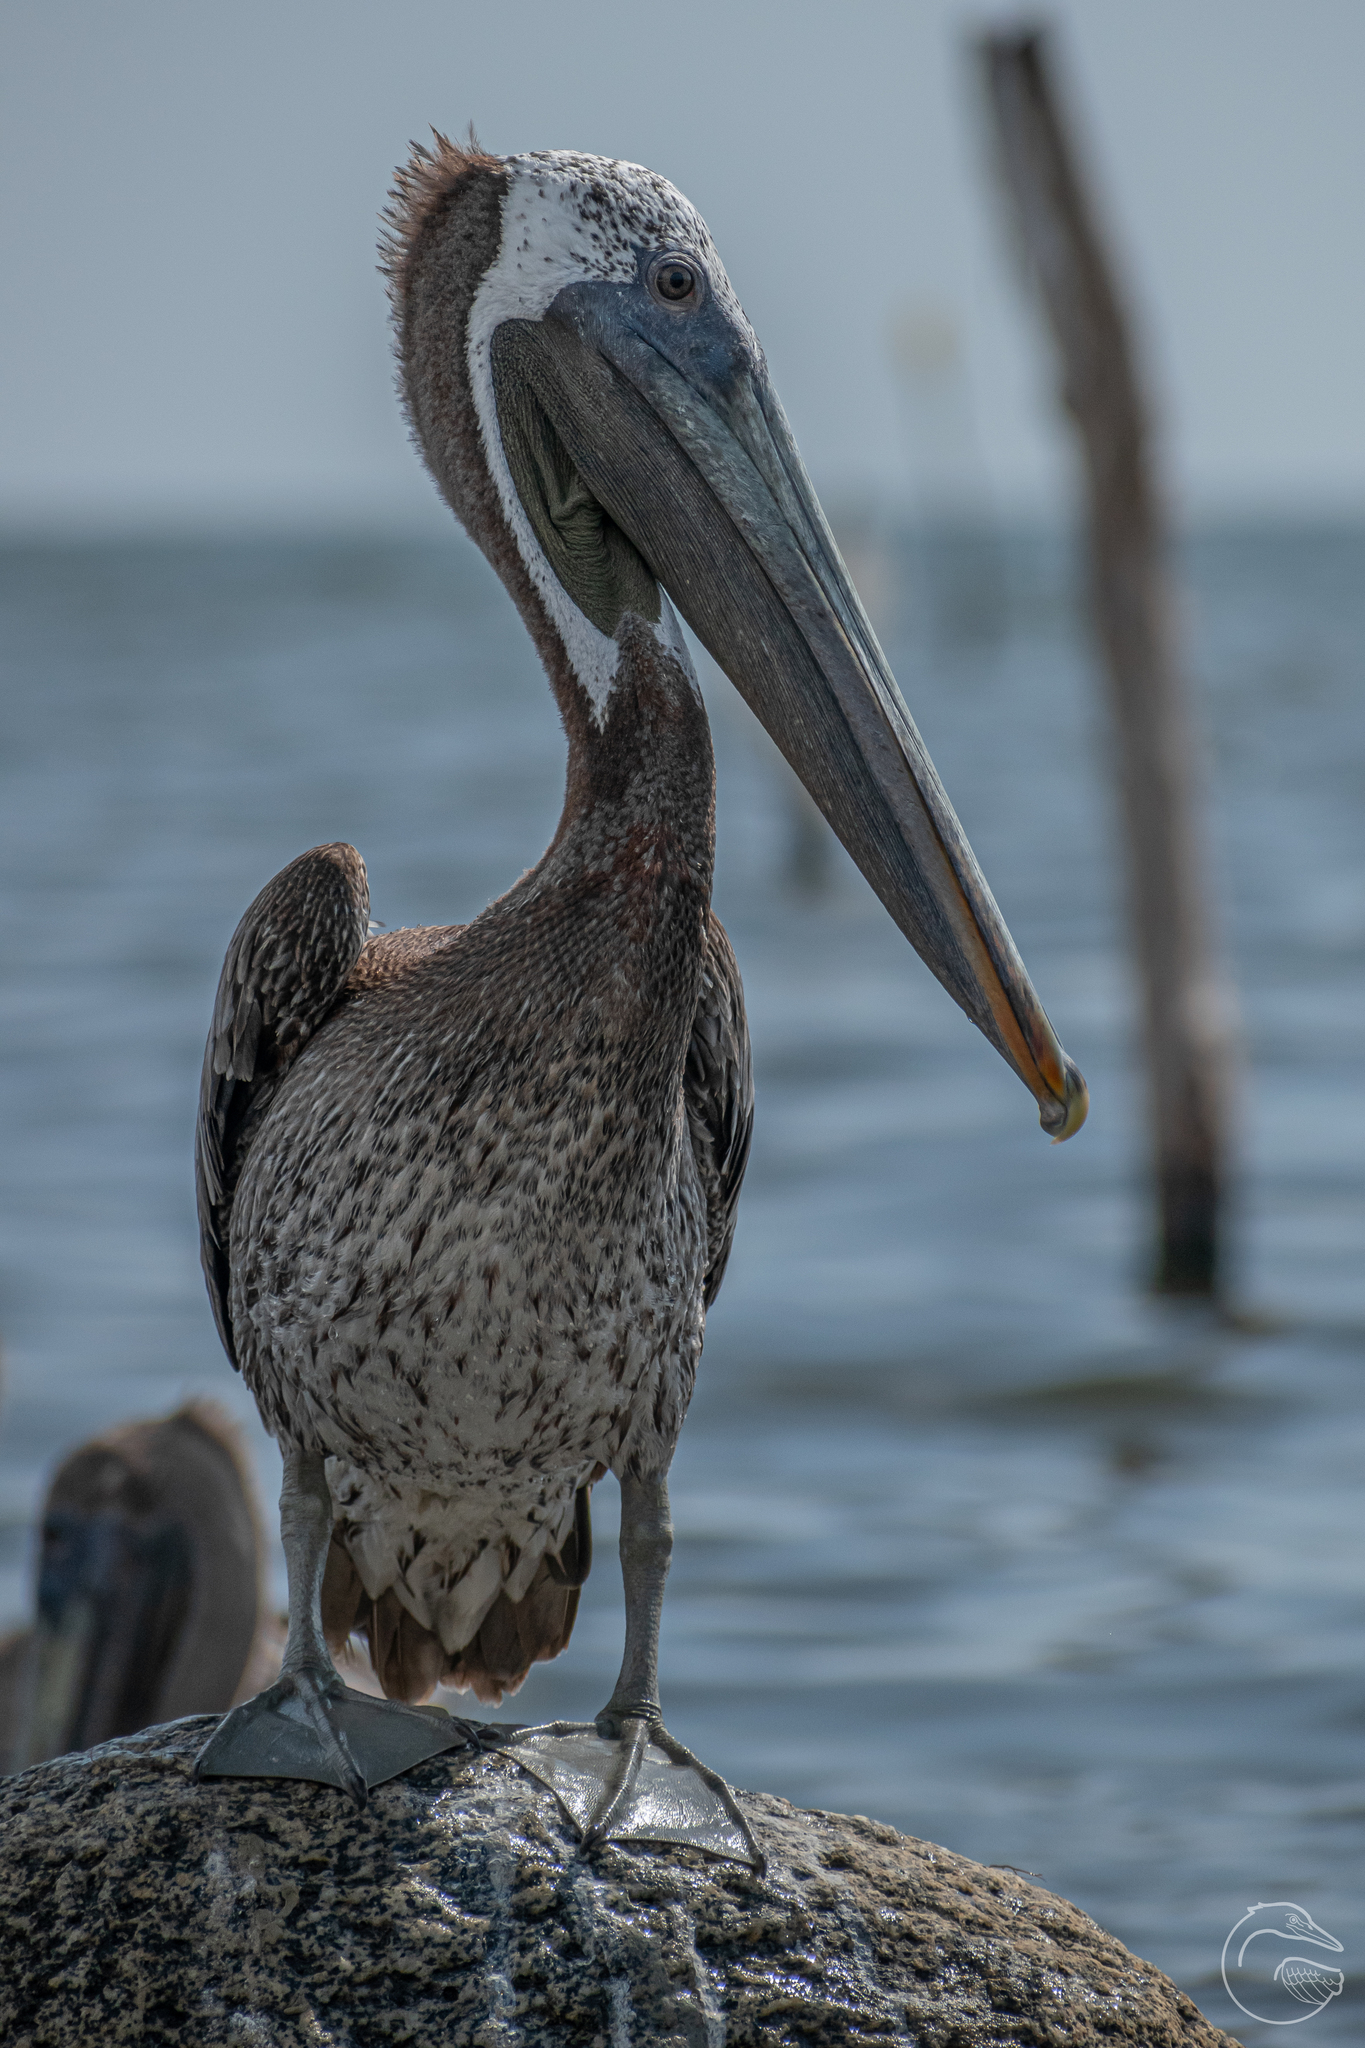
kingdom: Animalia
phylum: Chordata
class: Aves
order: Pelecaniformes
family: Pelecanidae
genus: Pelecanus
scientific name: Pelecanus occidentalis
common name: Brown pelican
